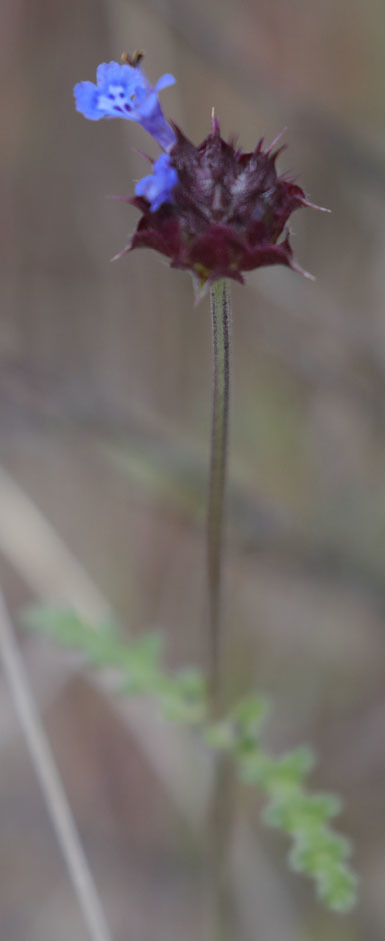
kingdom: Plantae
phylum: Tracheophyta
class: Magnoliopsida
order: Lamiales
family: Lamiaceae
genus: Salvia
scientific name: Salvia columbariae
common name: Chia
